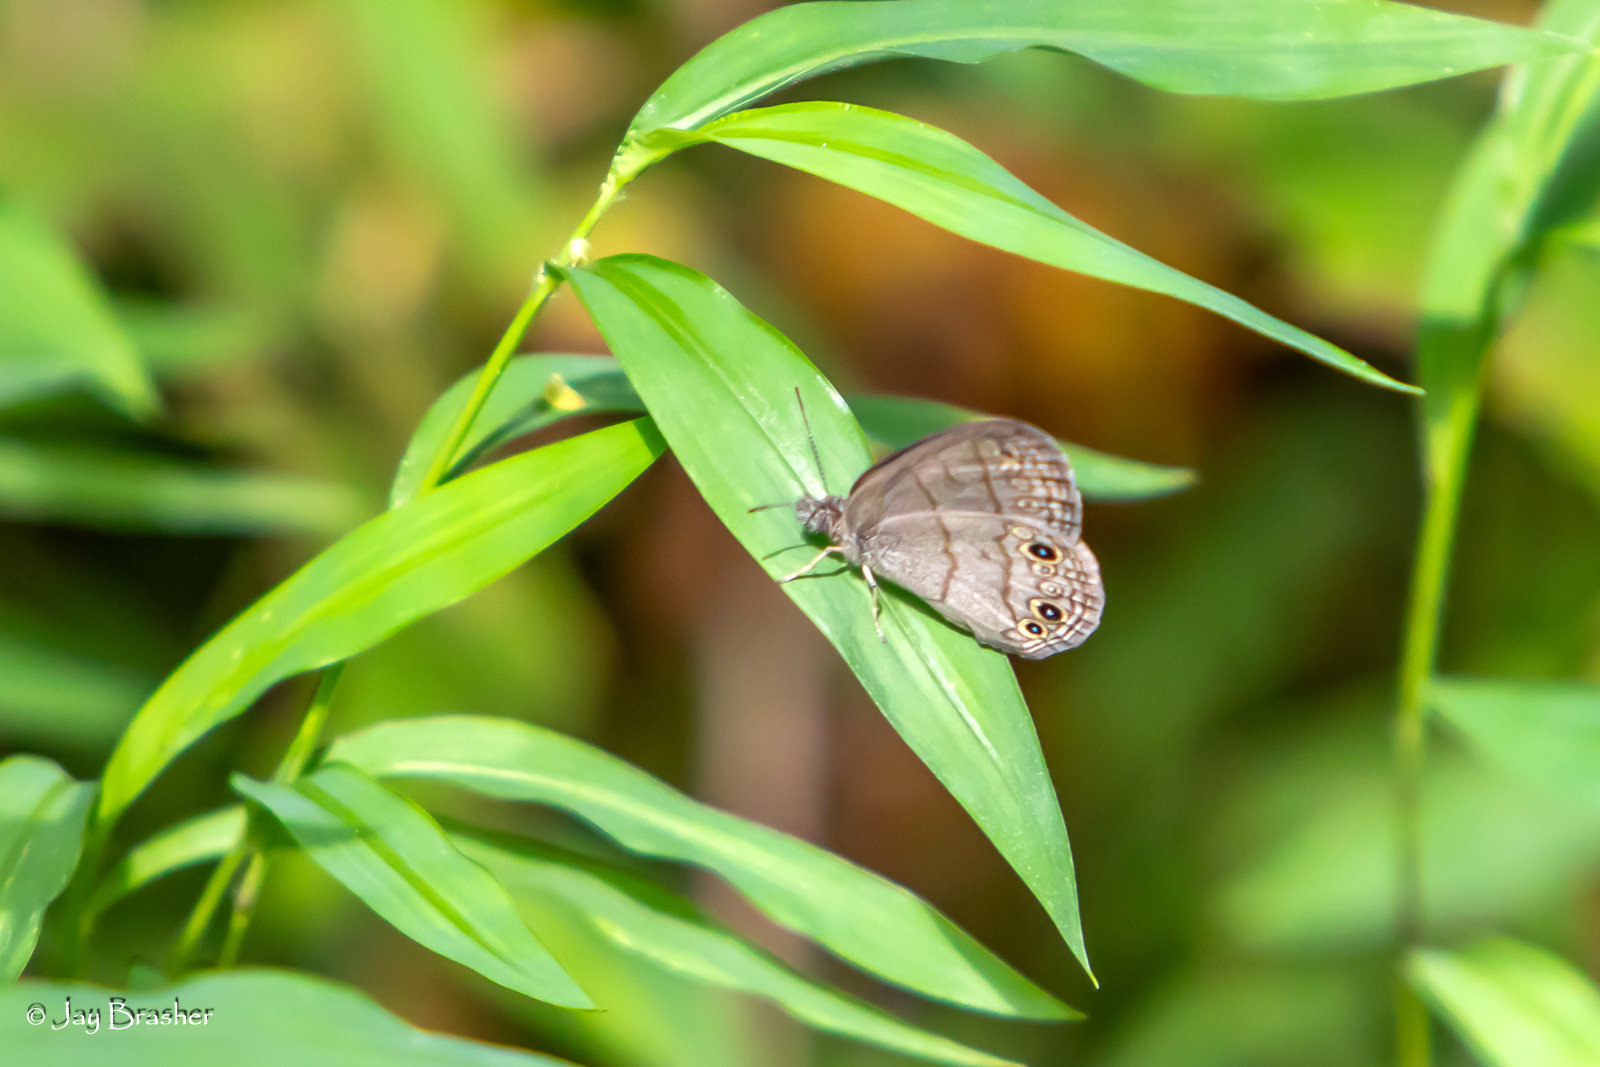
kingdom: Animalia
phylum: Arthropoda
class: Insecta
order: Lepidoptera
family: Nymphalidae
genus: Hermeuptychia
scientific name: Hermeuptychia hermes
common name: Hermes satyr
